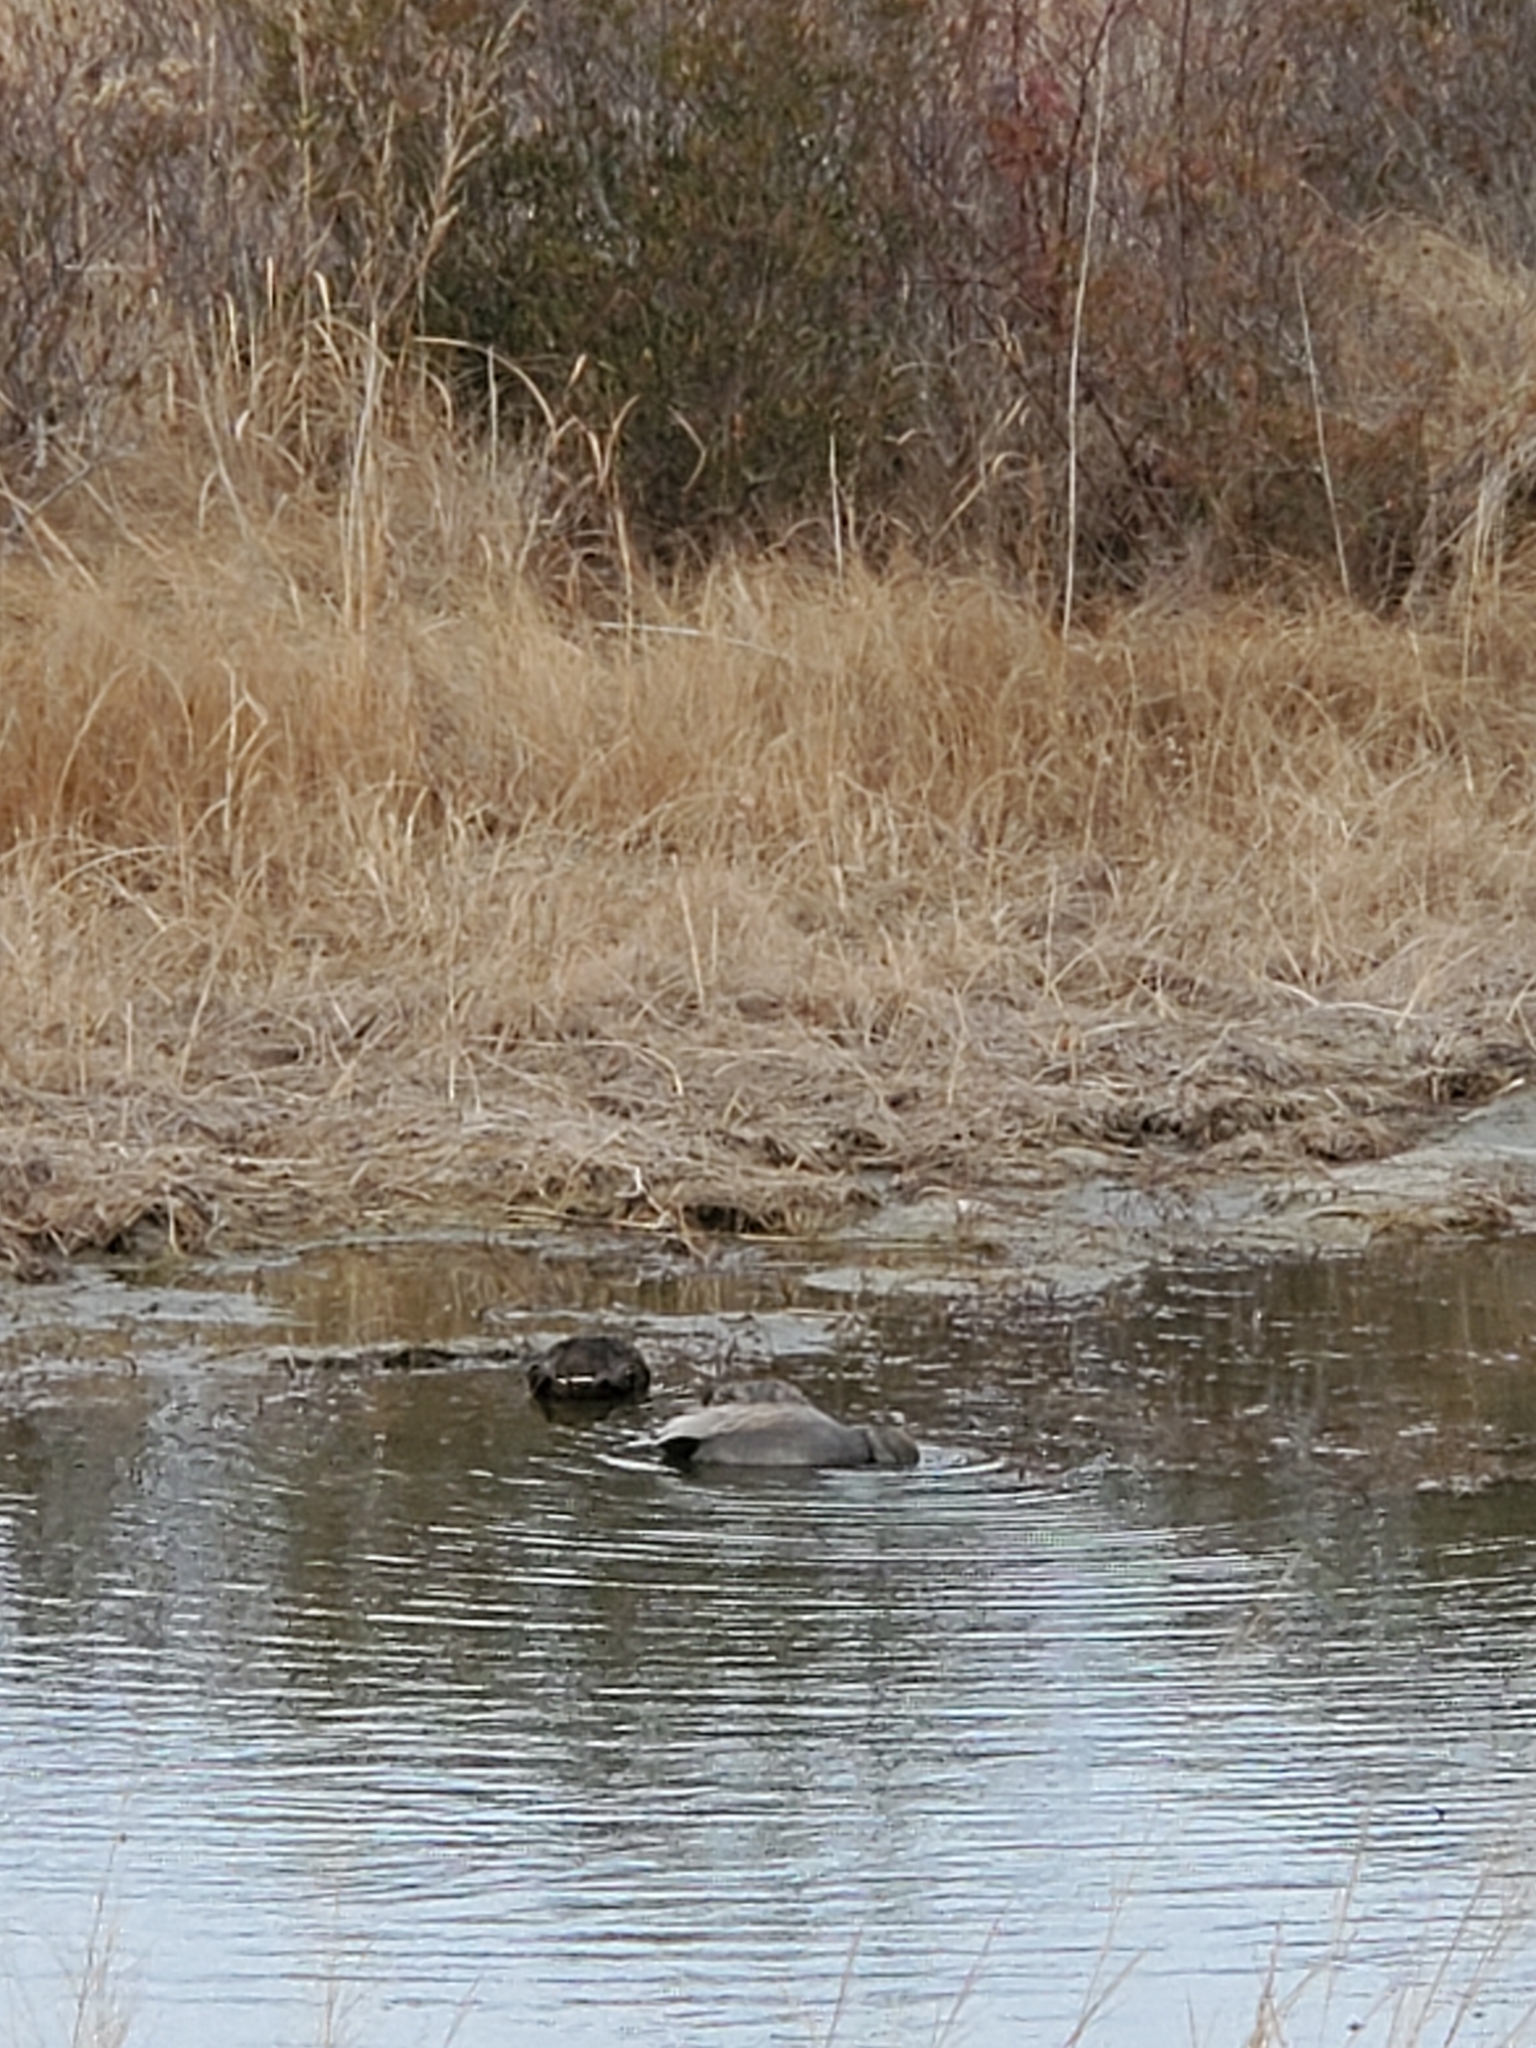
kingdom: Animalia
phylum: Chordata
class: Aves
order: Anseriformes
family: Anatidae
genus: Mareca
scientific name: Mareca strepera
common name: Gadwall
